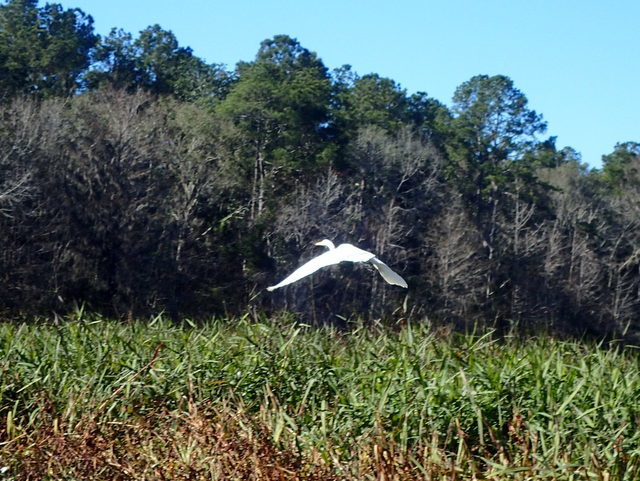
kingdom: Animalia
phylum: Chordata
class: Aves
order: Pelecaniformes
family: Ardeidae
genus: Ardea
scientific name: Ardea alba
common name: Great egret
